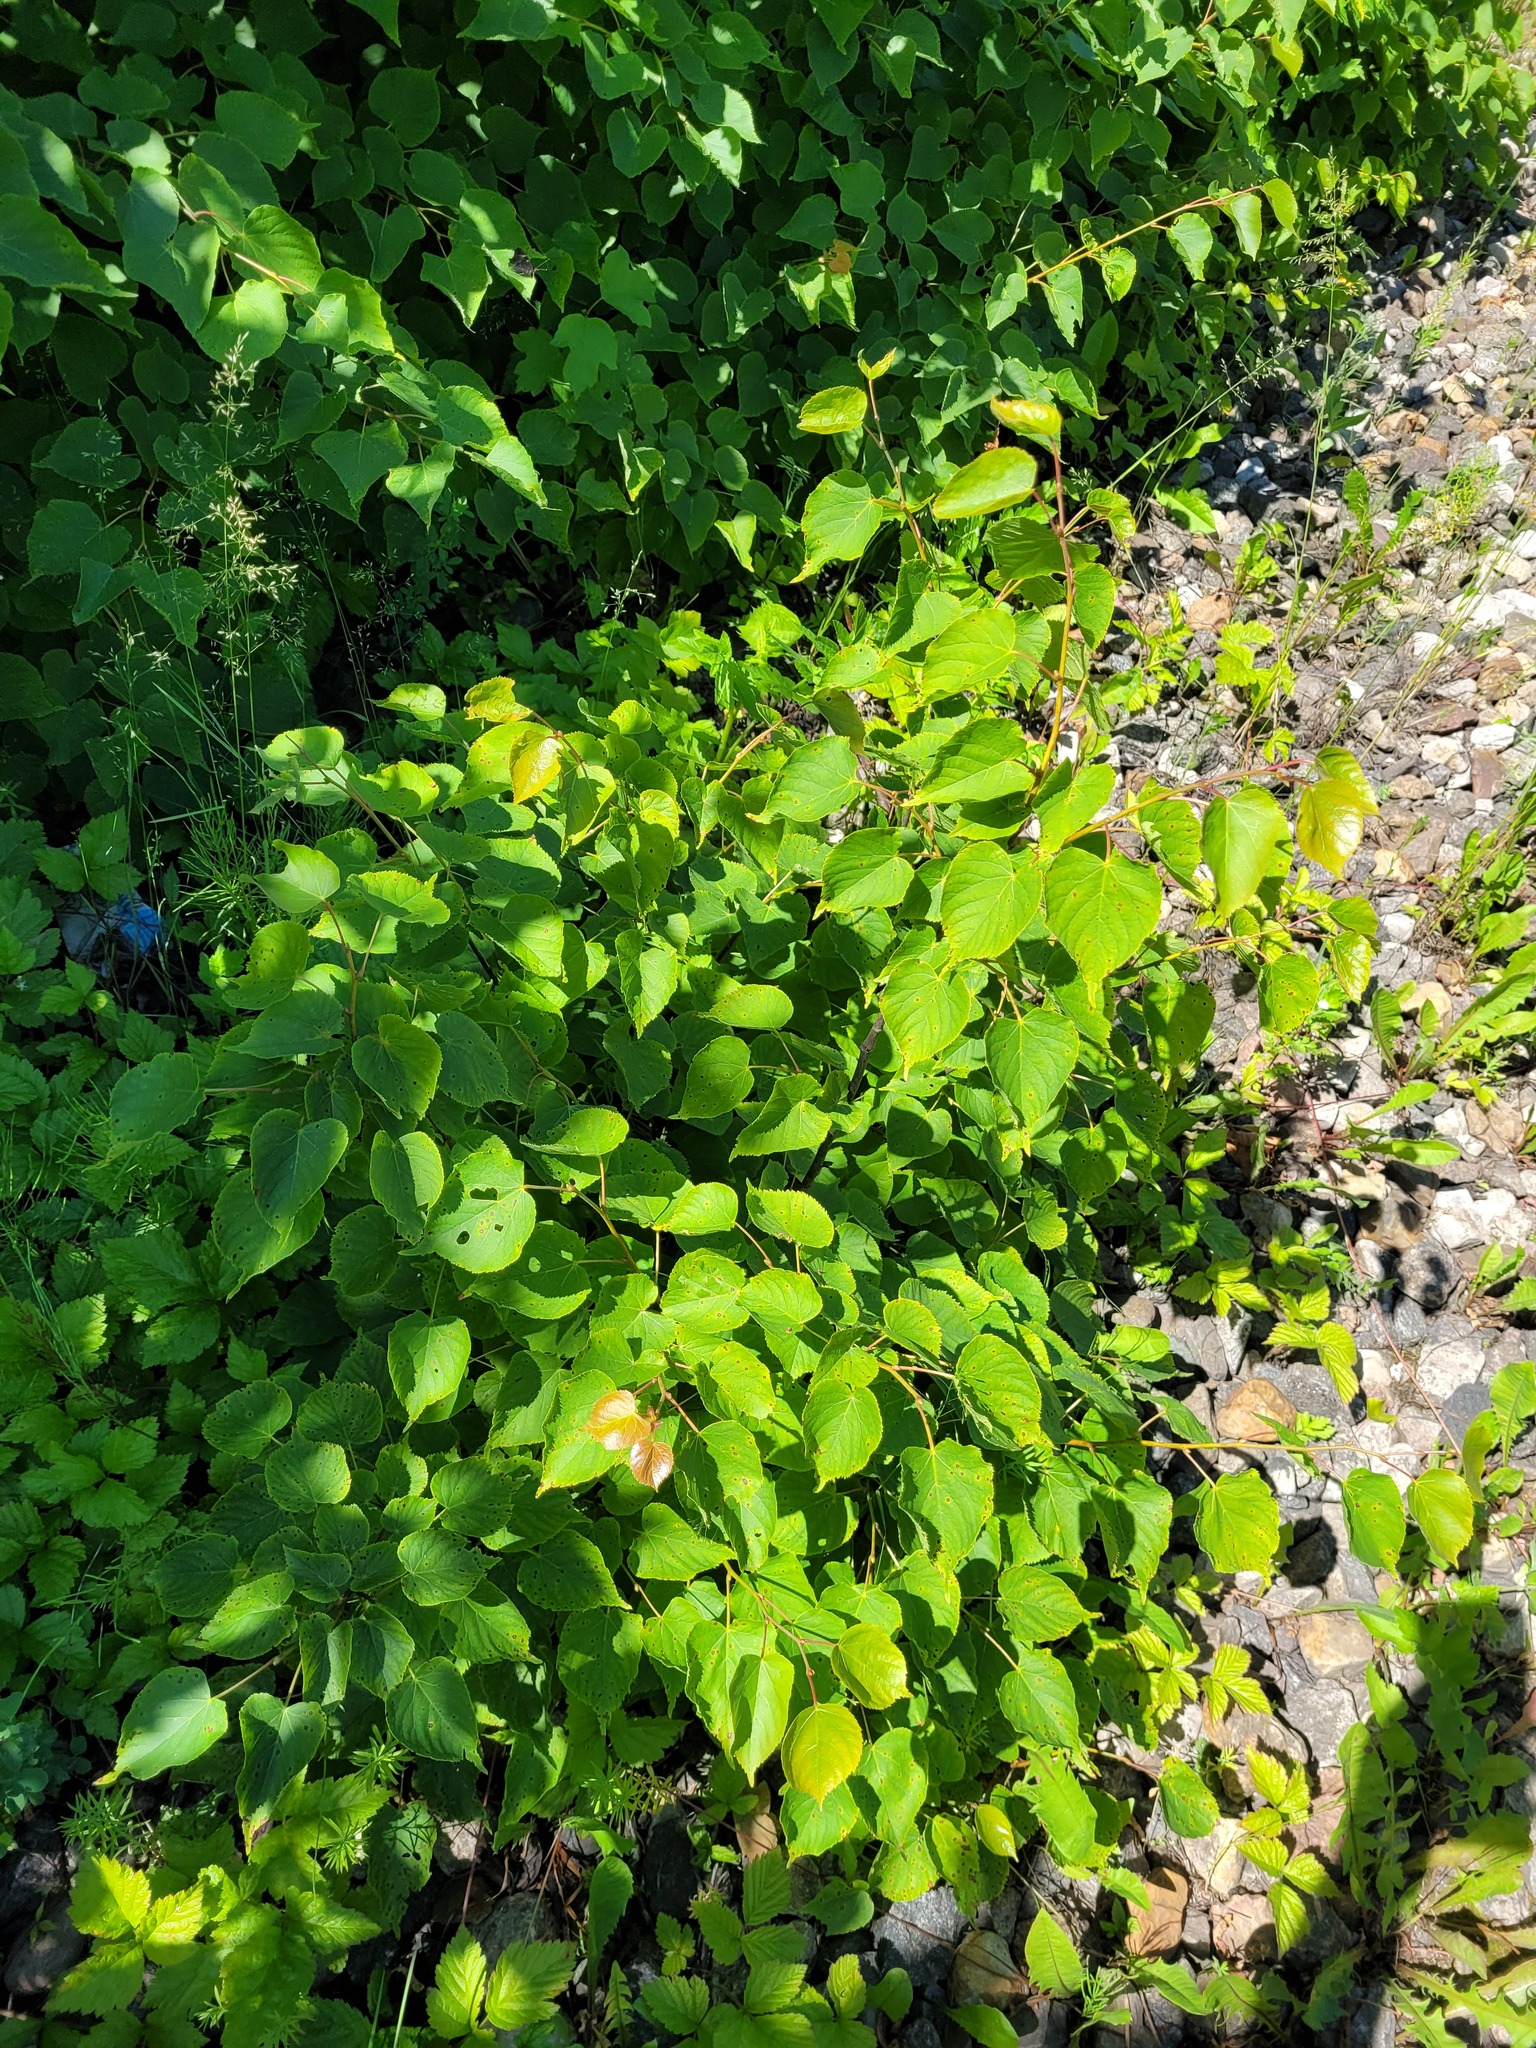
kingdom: Plantae
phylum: Tracheophyta
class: Magnoliopsida
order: Malvales
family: Malvaceae
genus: Tilia
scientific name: Tilia cordata
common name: Small-leaved lime
